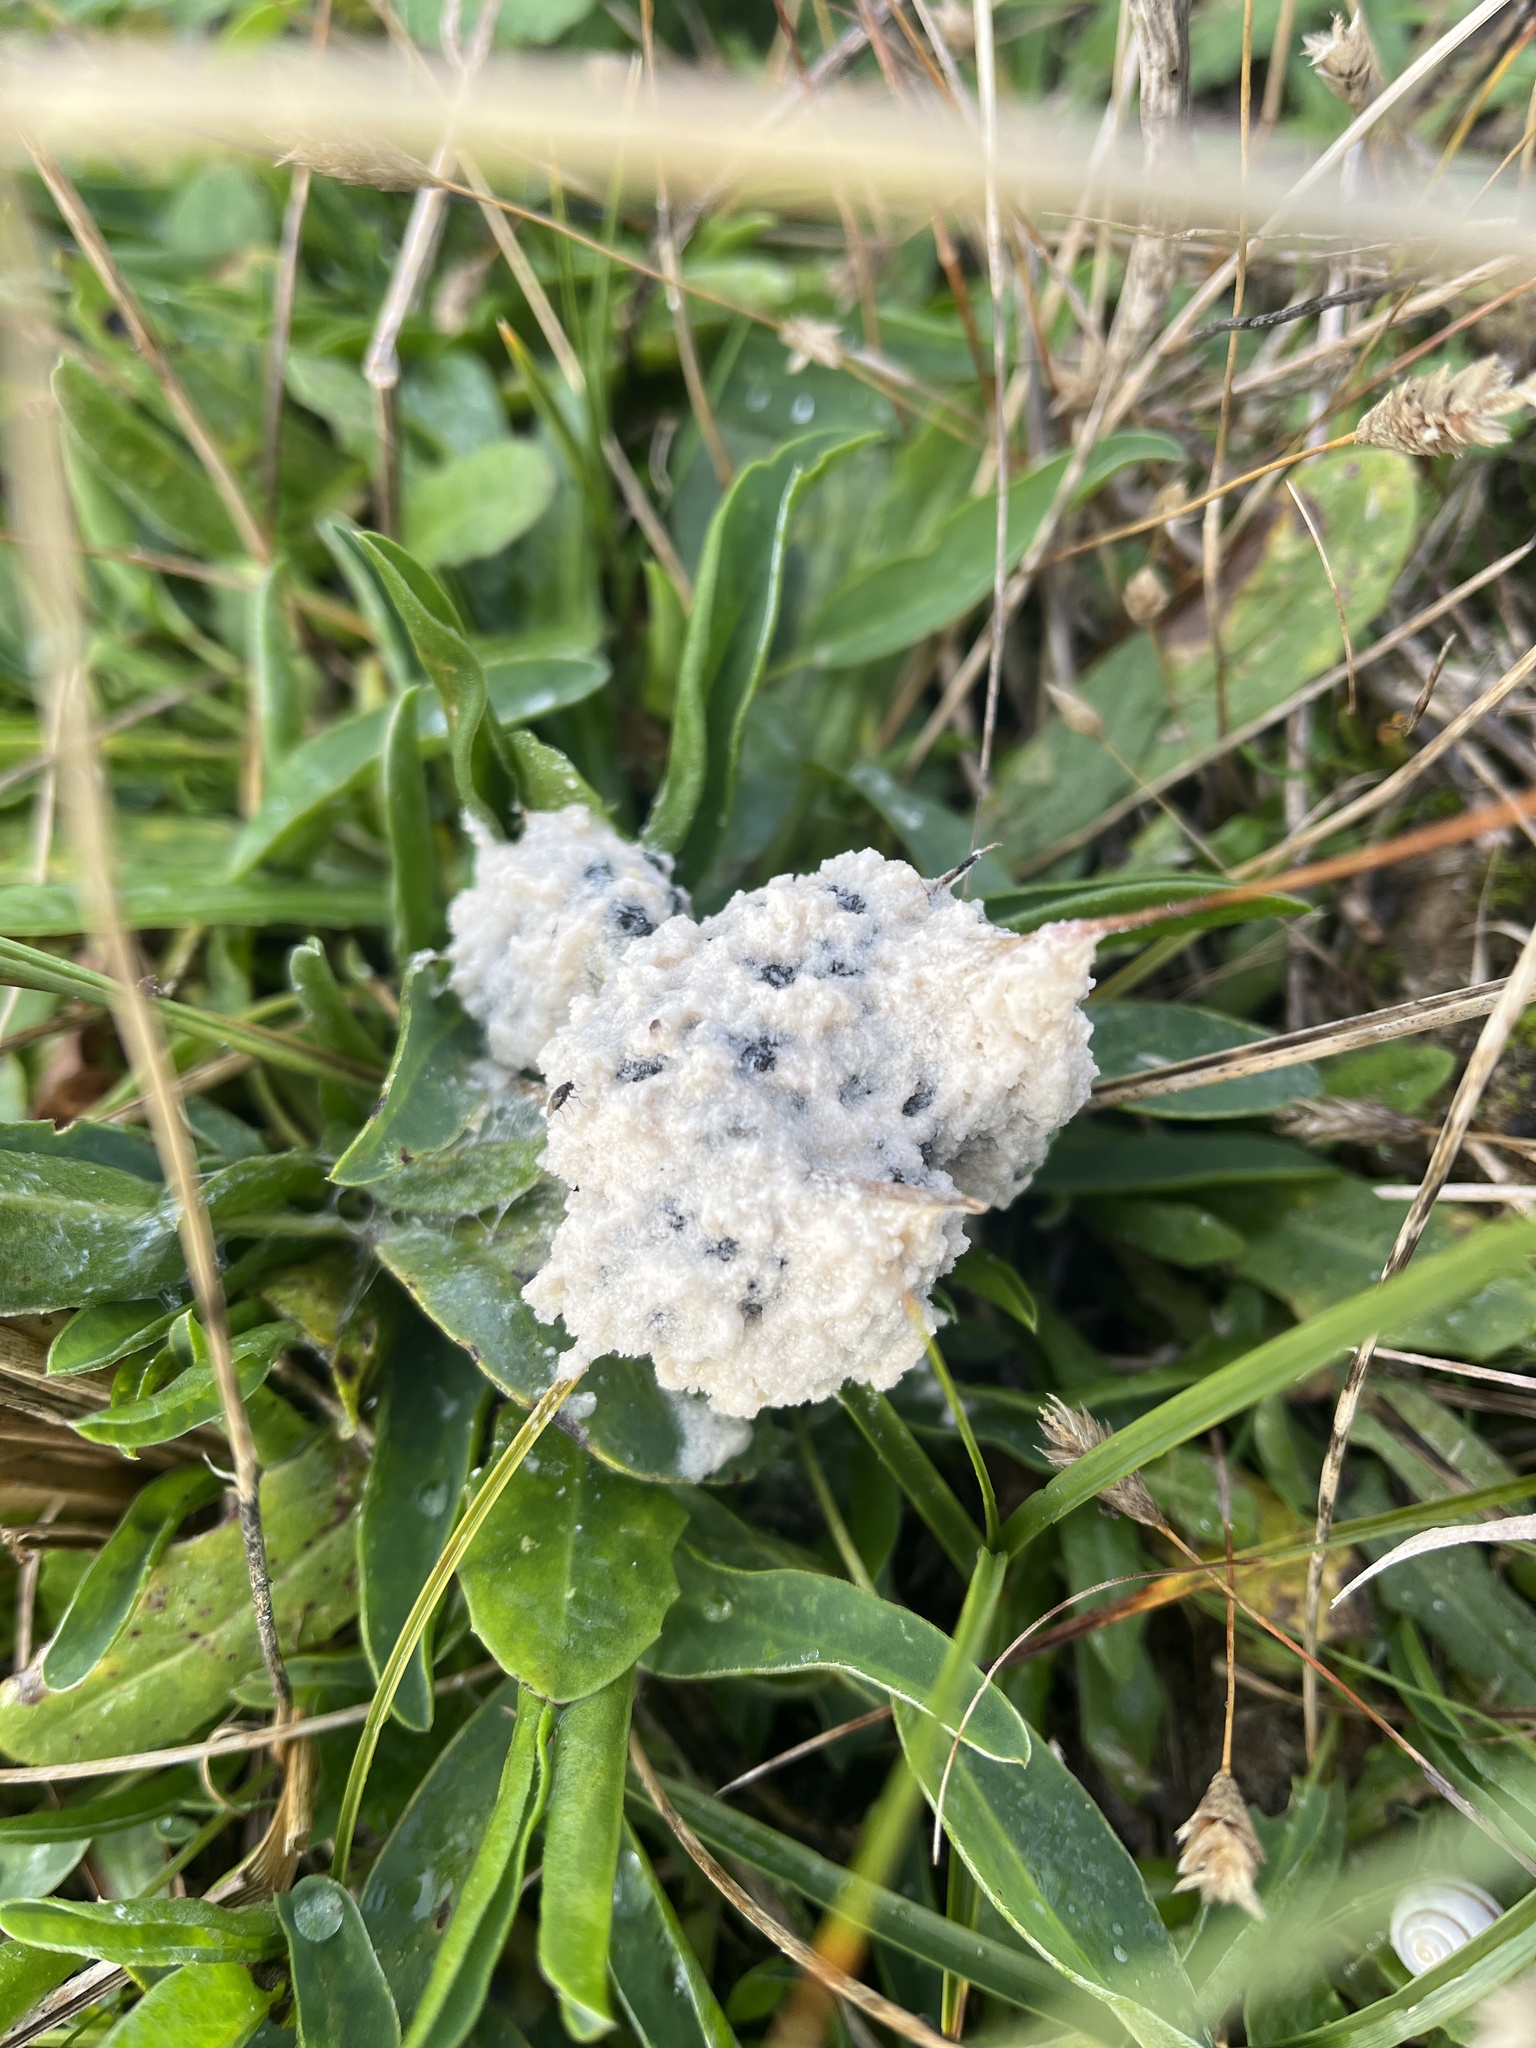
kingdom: Protozoa
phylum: Mycetozoa
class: Myxomycetes
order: Physarales
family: Physaraceae
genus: Didymium
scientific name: Didymium
